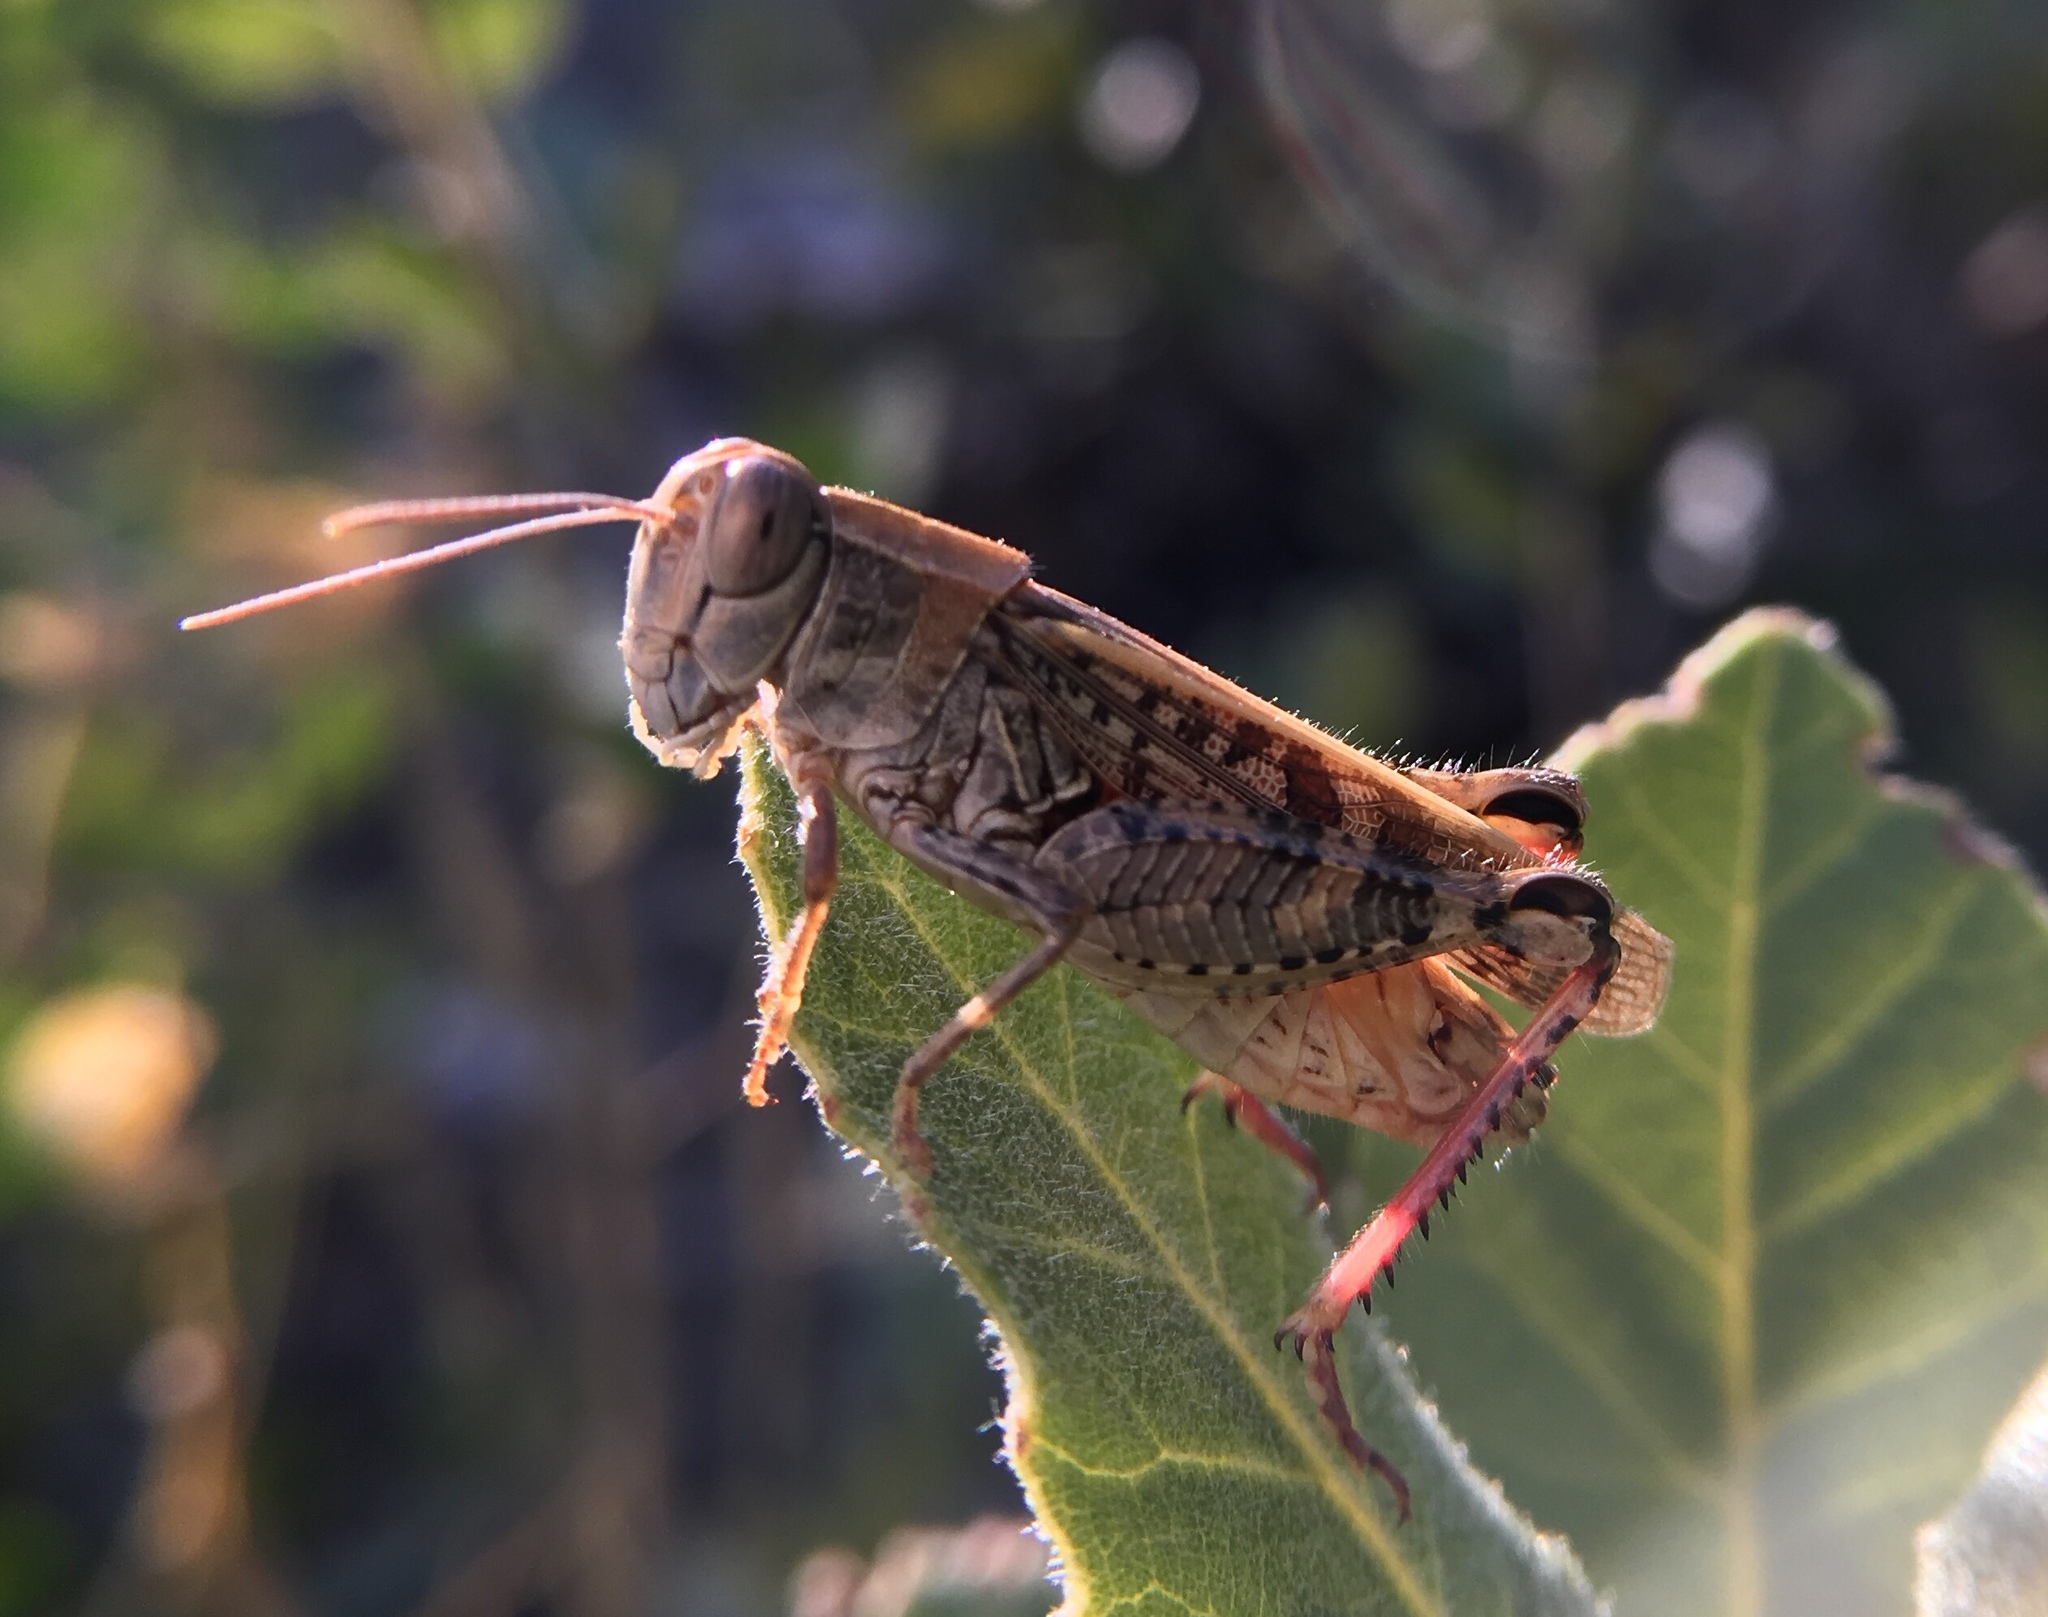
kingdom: Animalia
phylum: Arthropoda
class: Insecta
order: Orthoptera
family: Acrididae
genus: Calliptamus
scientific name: Calliptamus italicus
